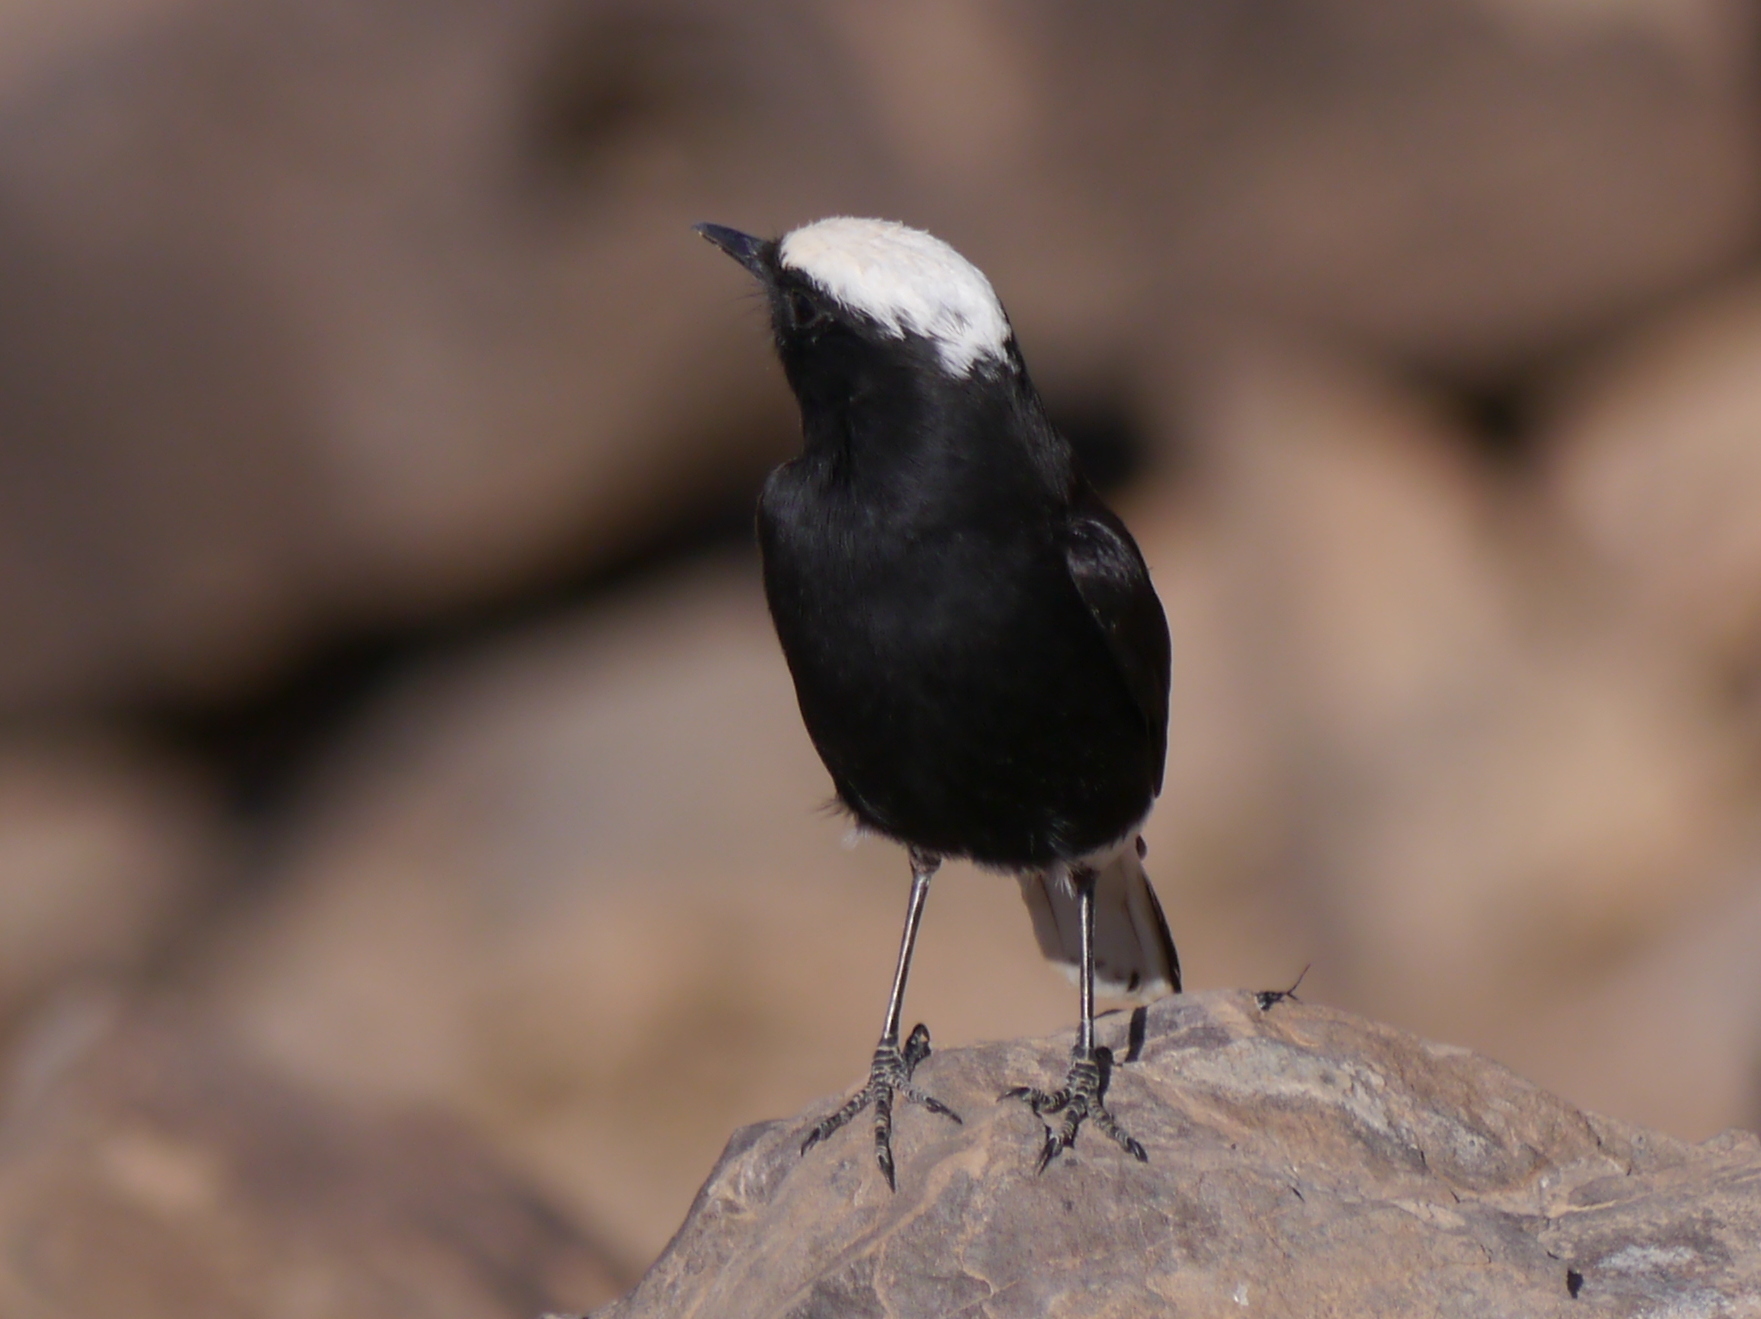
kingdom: Animalia
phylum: Chordata
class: Aves
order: Passeriformes
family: Muscicapidae
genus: Oenanthe
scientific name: Oenanthe leucopyga
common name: White-crowned wheatear
